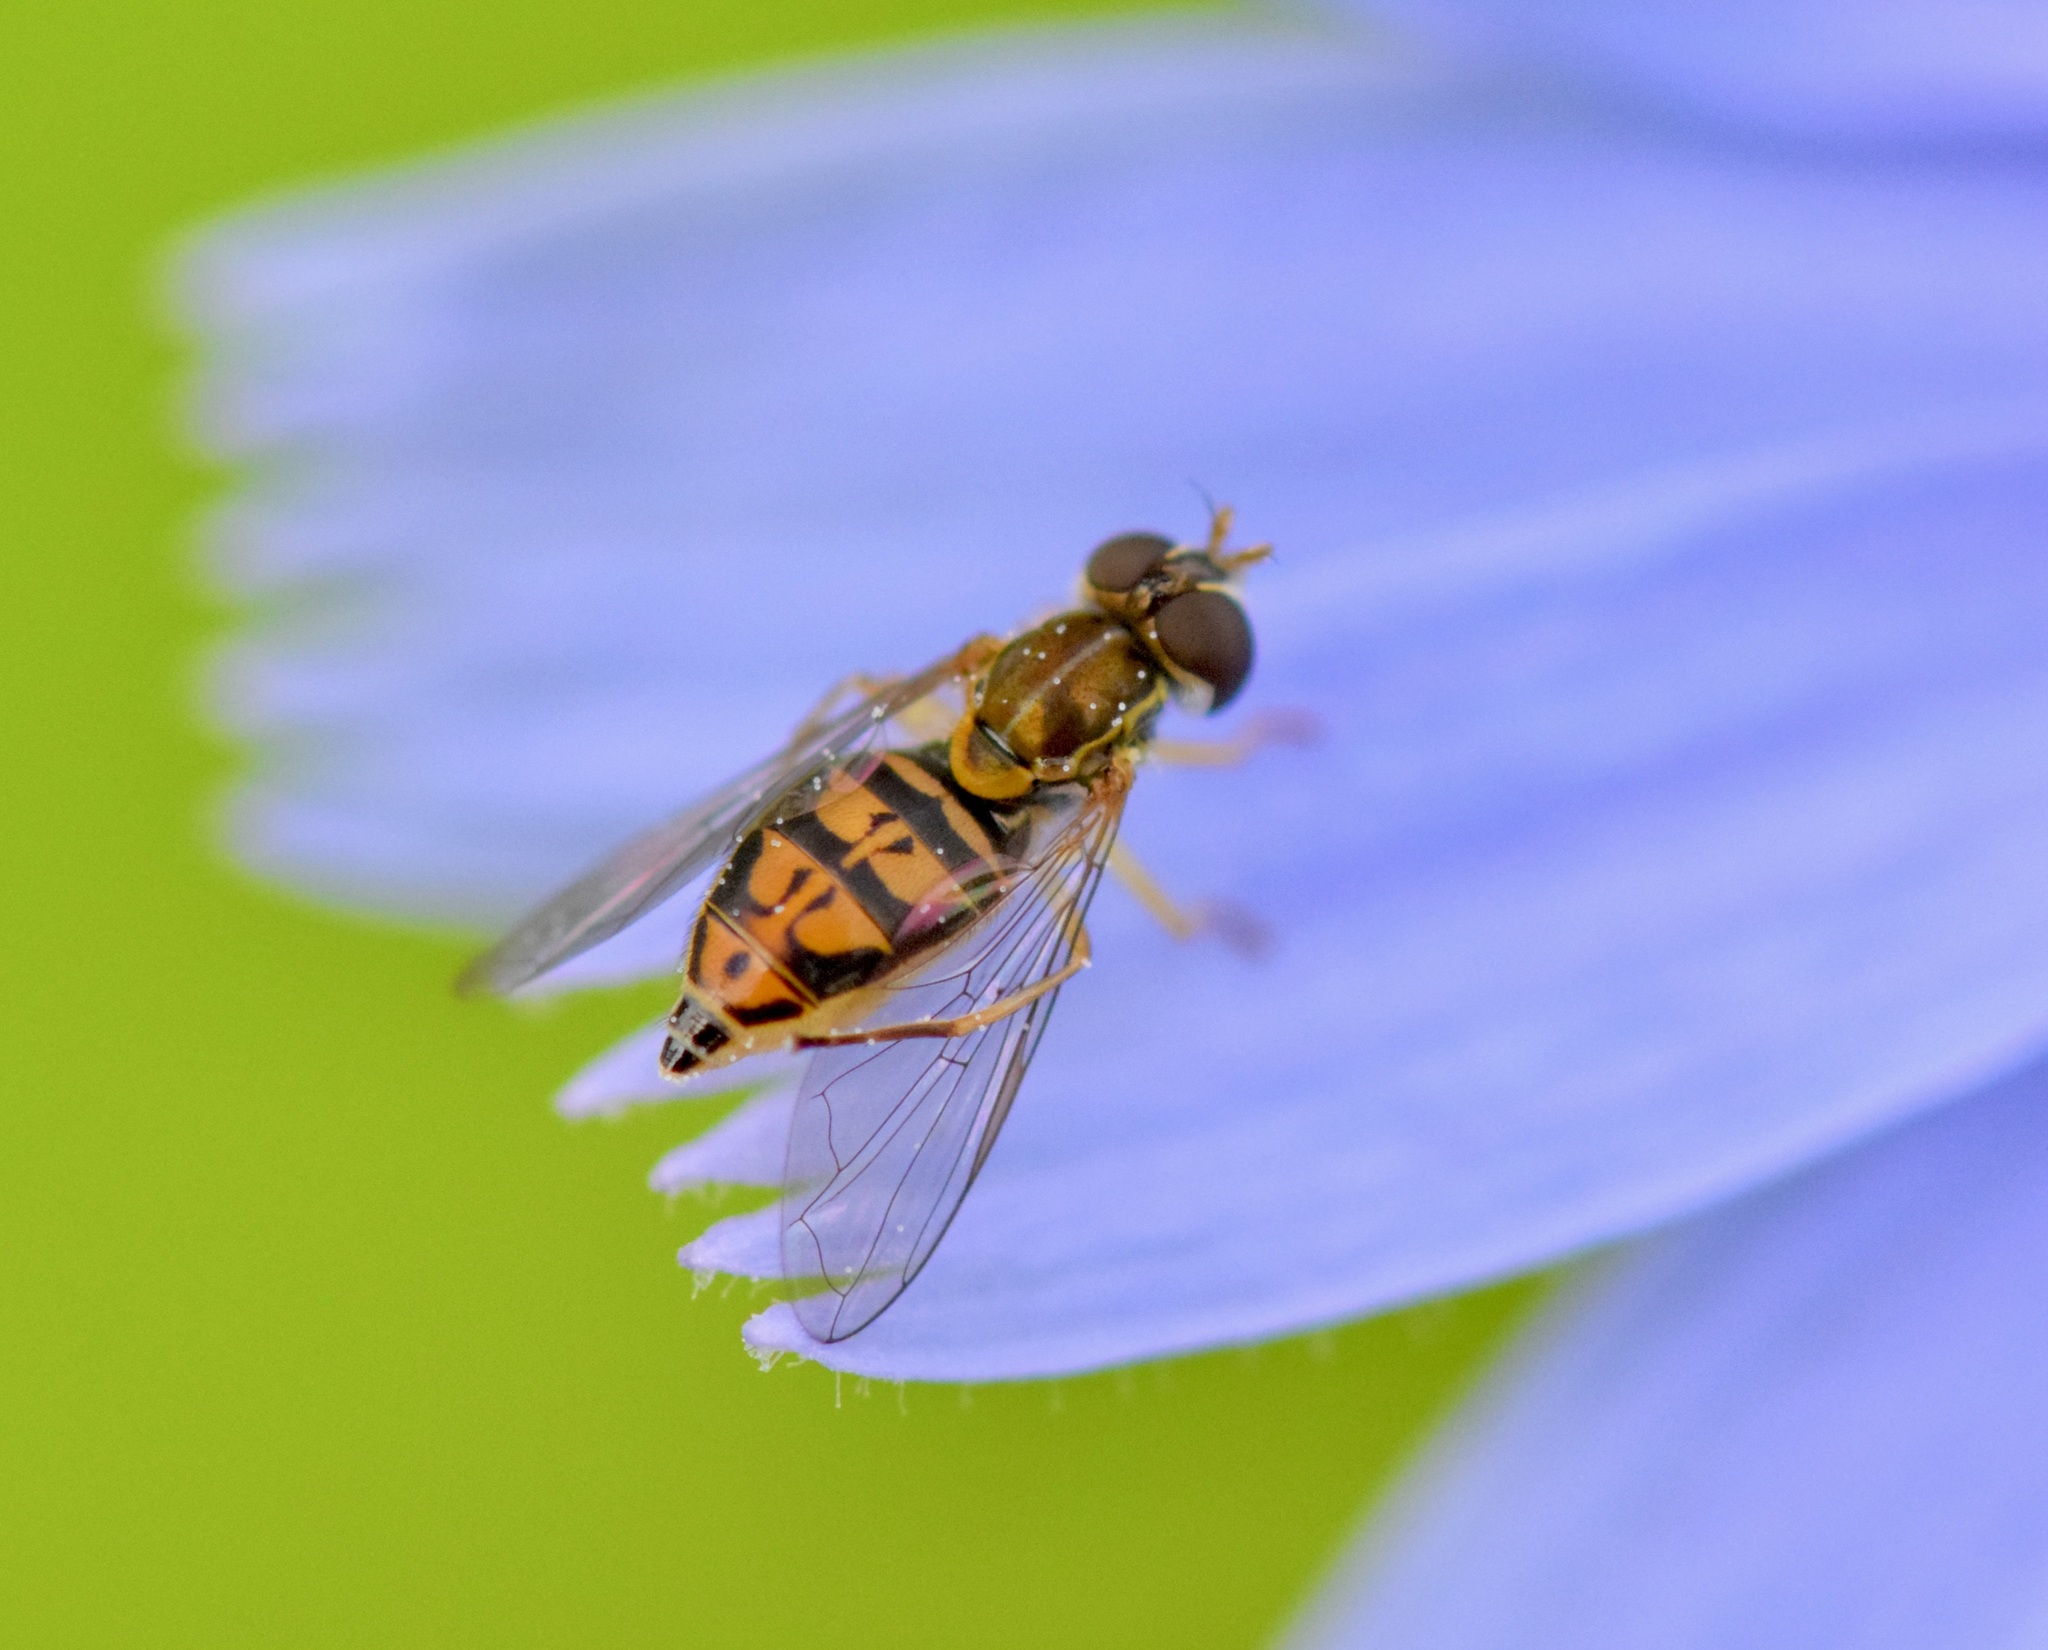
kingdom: Animalia
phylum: Arthropoda
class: Insecta
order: Diptera
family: Syrphidae
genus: Toxomerus
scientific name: Toxomerus marginatus
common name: Syrphid fly
